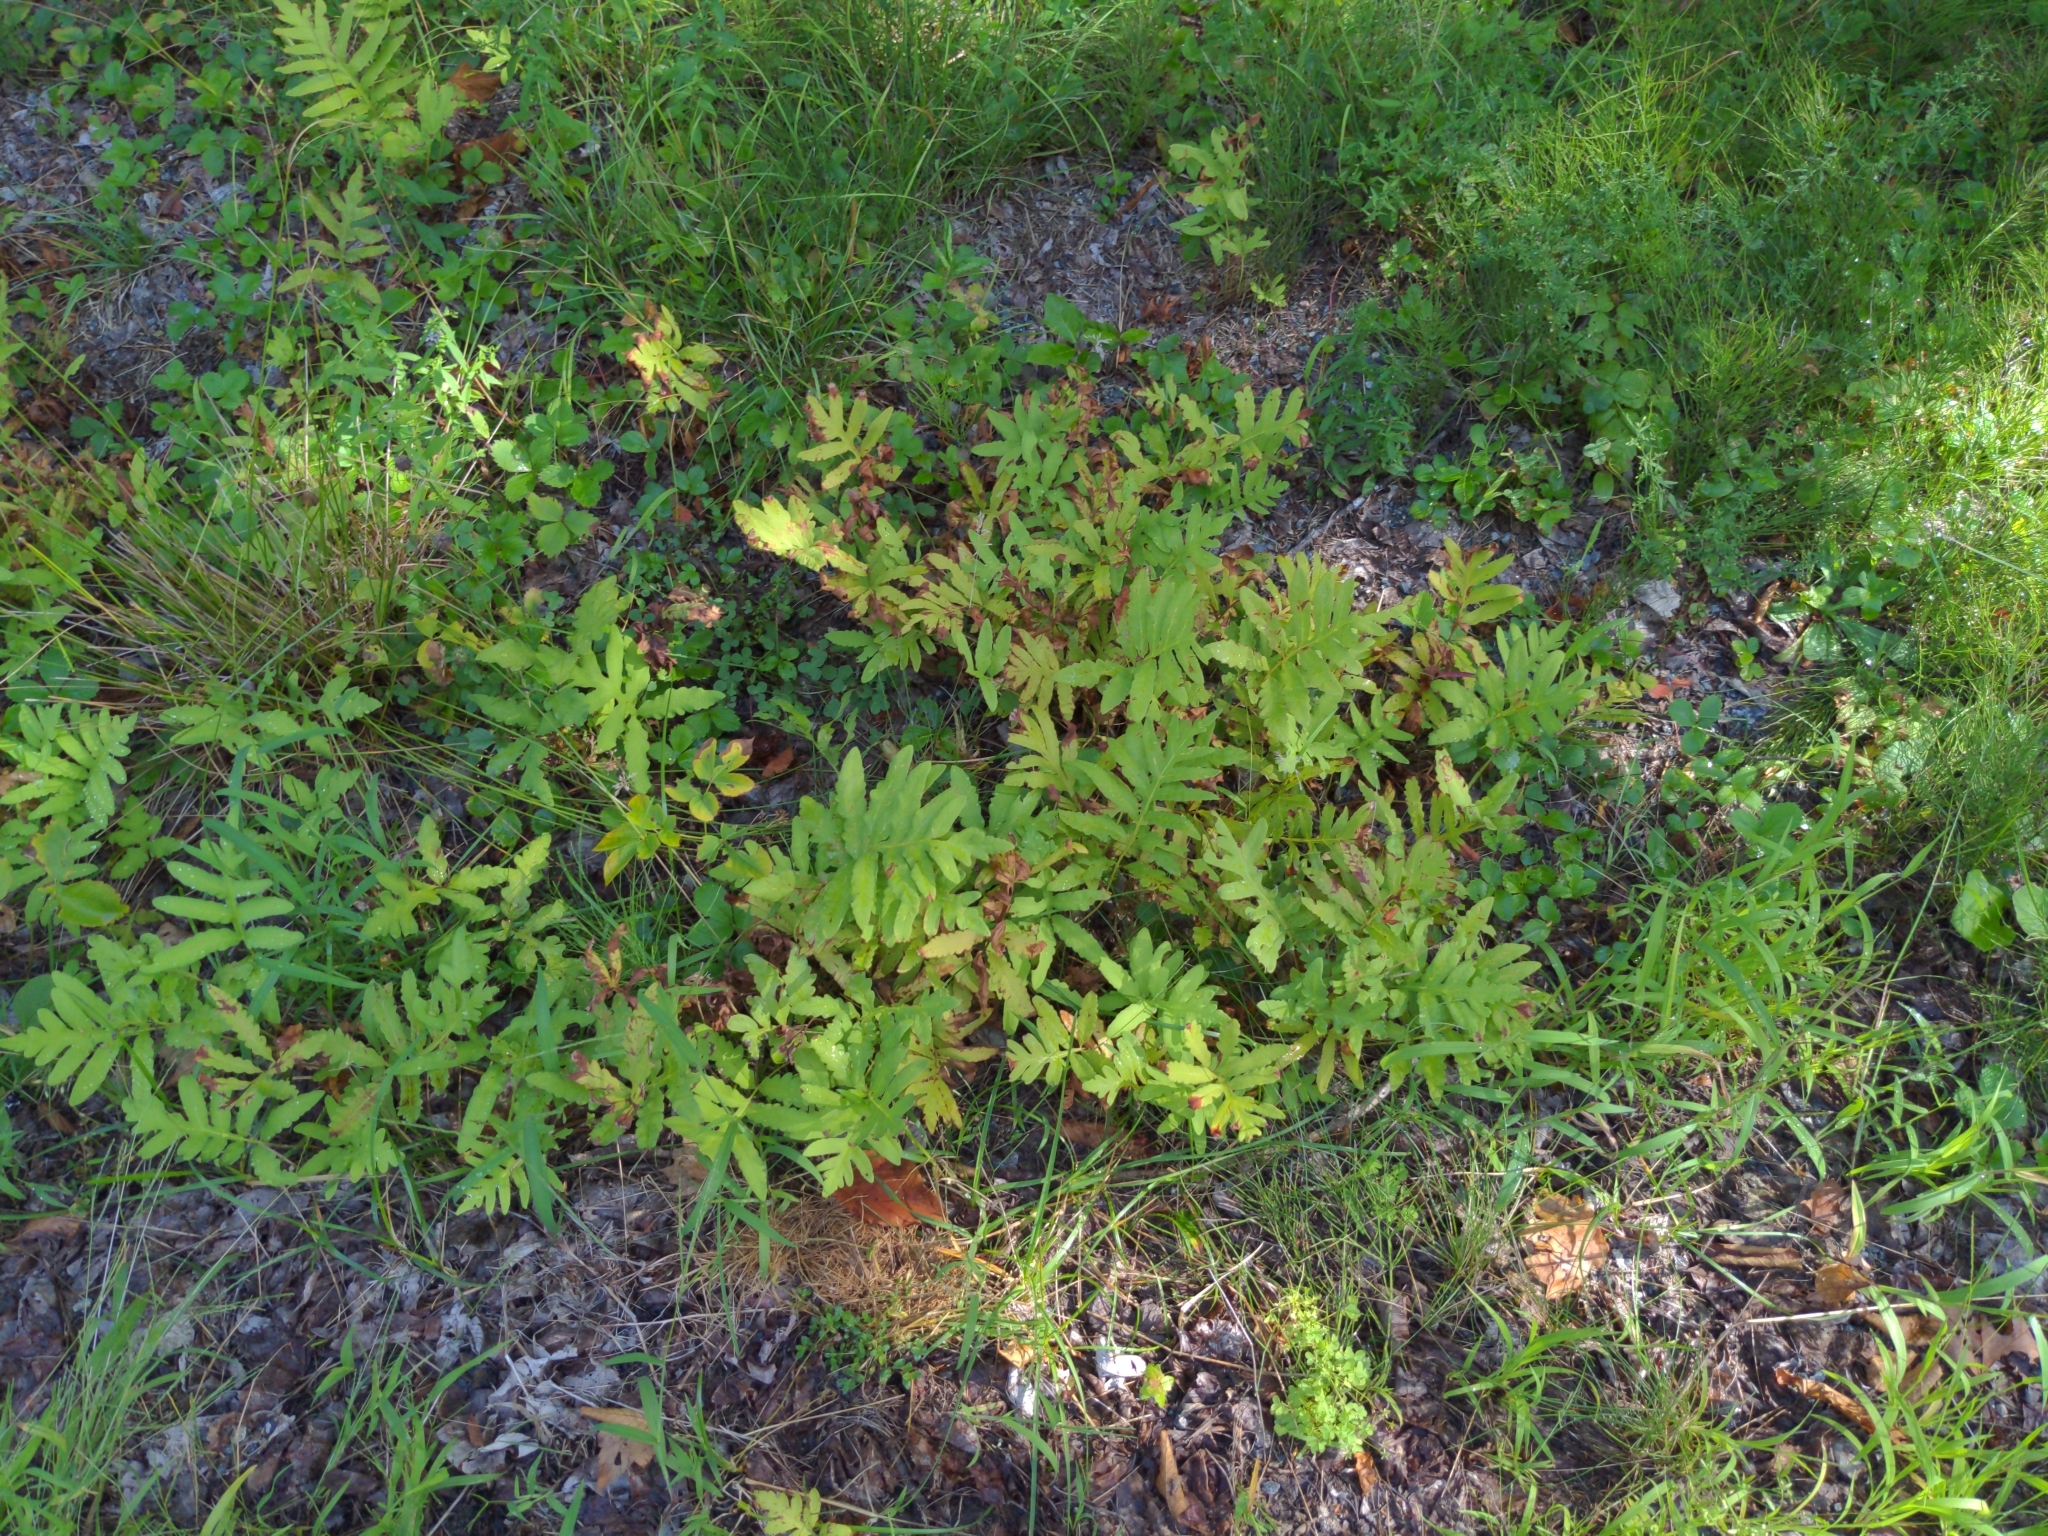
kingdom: Plantae
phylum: Tracheophyta
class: Polypodiopsida
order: Polypodiales
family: Onocleaceae
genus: Onoclea
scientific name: Onoclea sensibilis
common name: Sensitive fern
